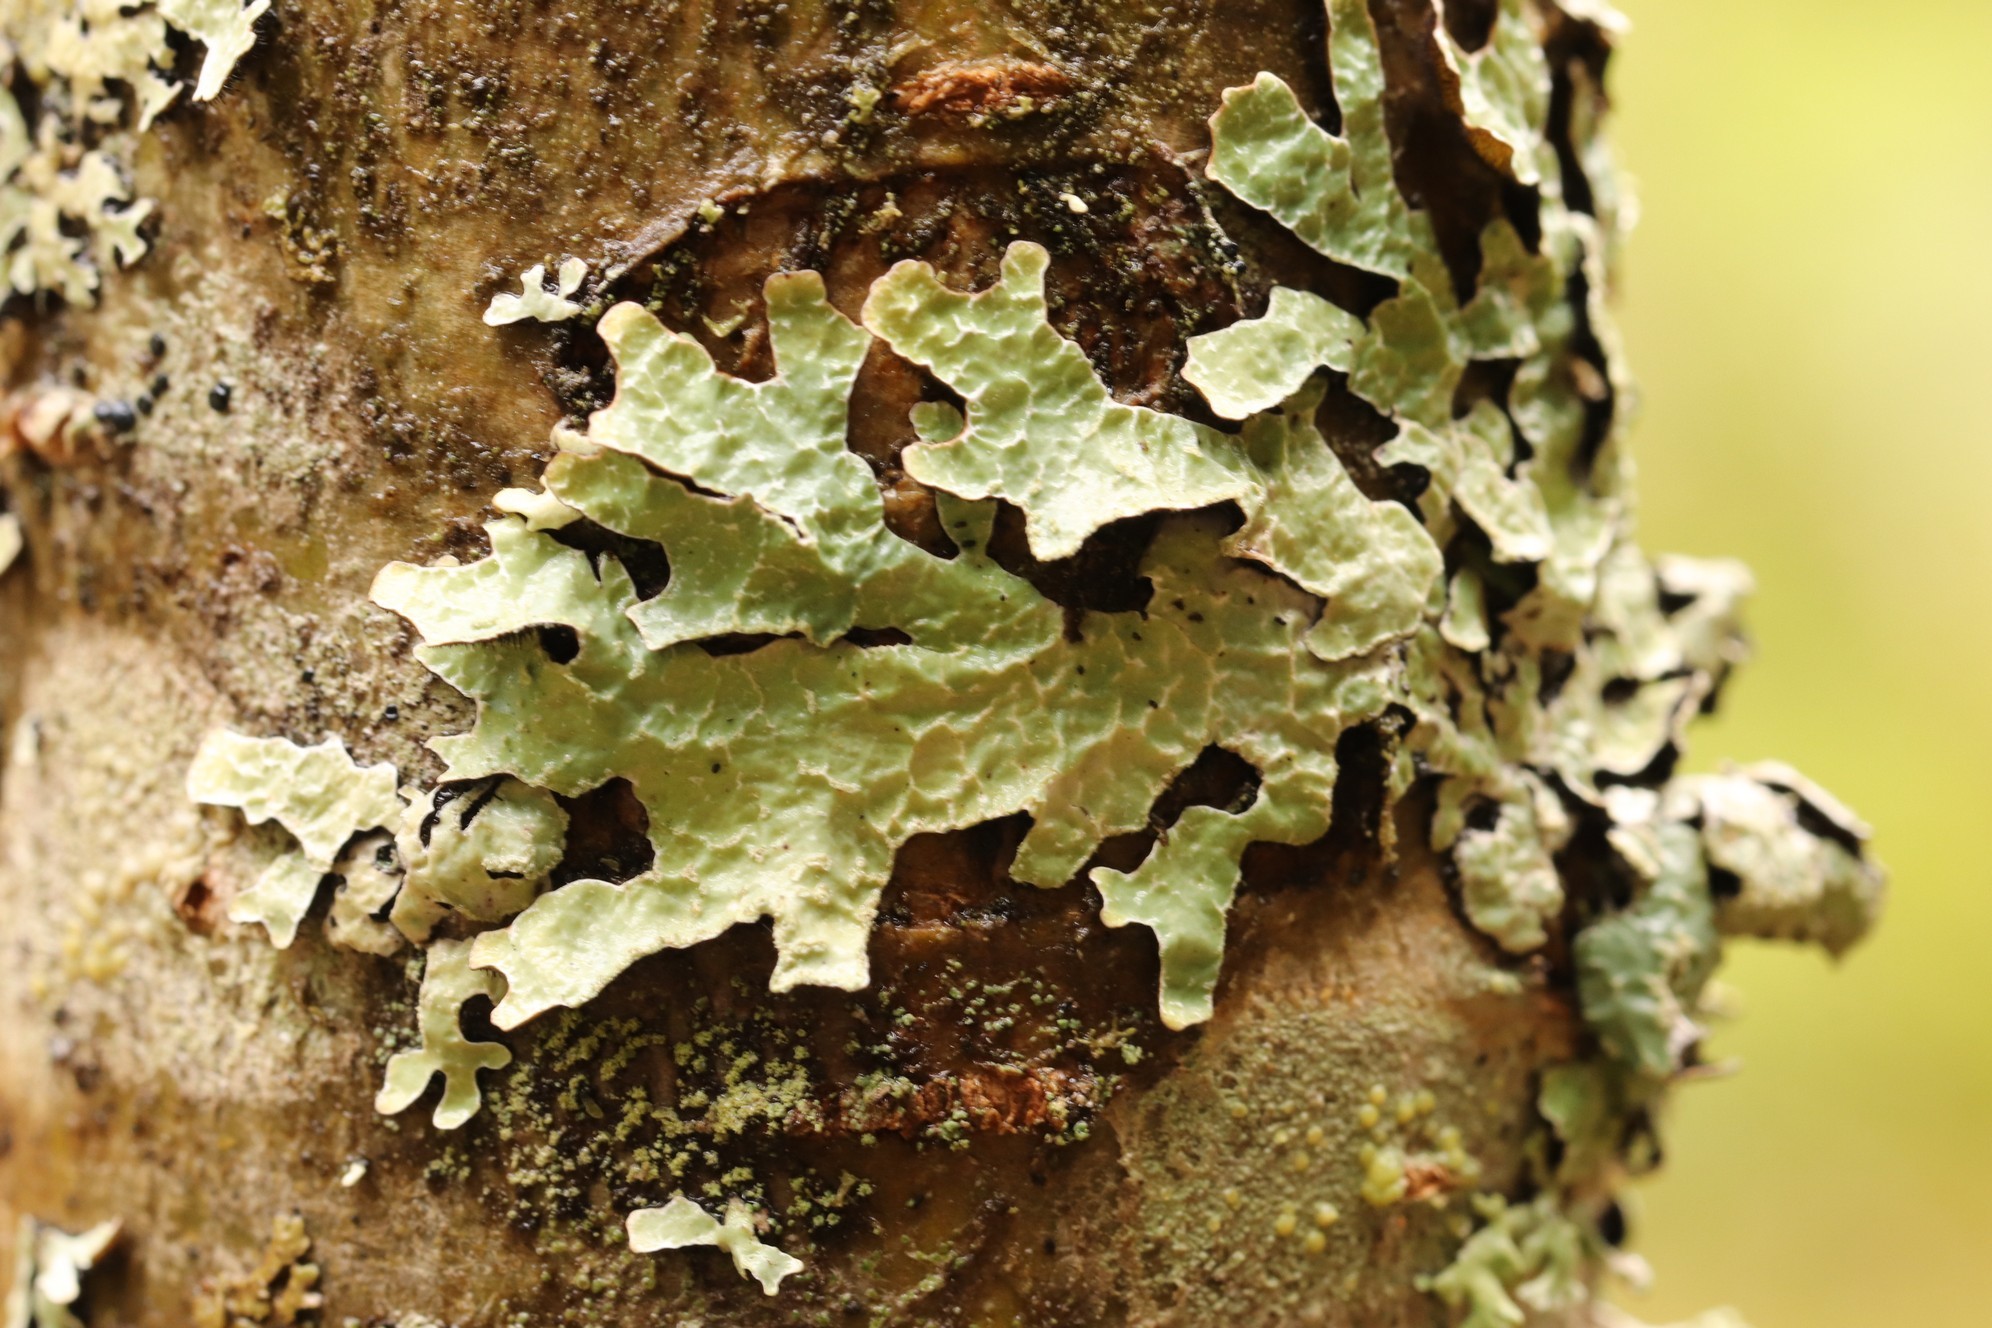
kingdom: Fungi
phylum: Ascomycota
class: Lecanoromycetes
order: Lecanorales
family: Parmeliaceae
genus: Parmelia
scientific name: Parmelia sulcata
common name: Netted shield lichen
